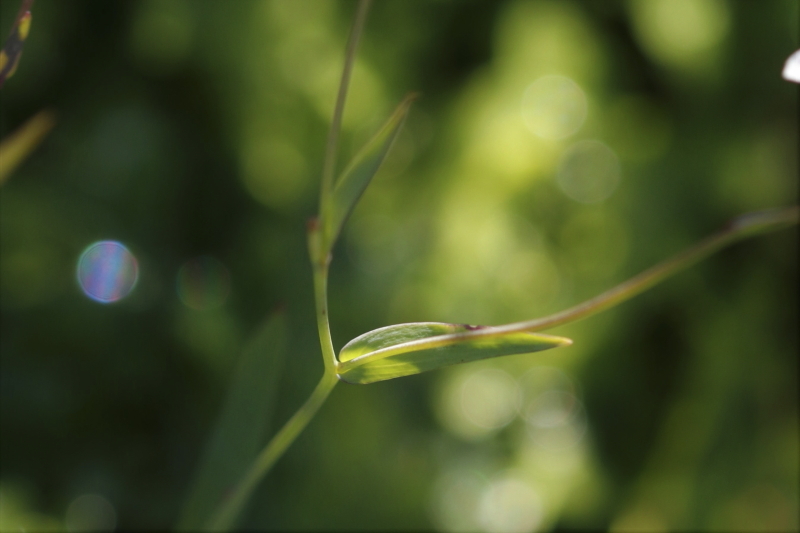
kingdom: Plantae
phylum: Tracheophyta
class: Magnoliopsida
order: Brassicales
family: Brassicaceae
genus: Heliophila
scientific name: Heliophila amplexicaulis
